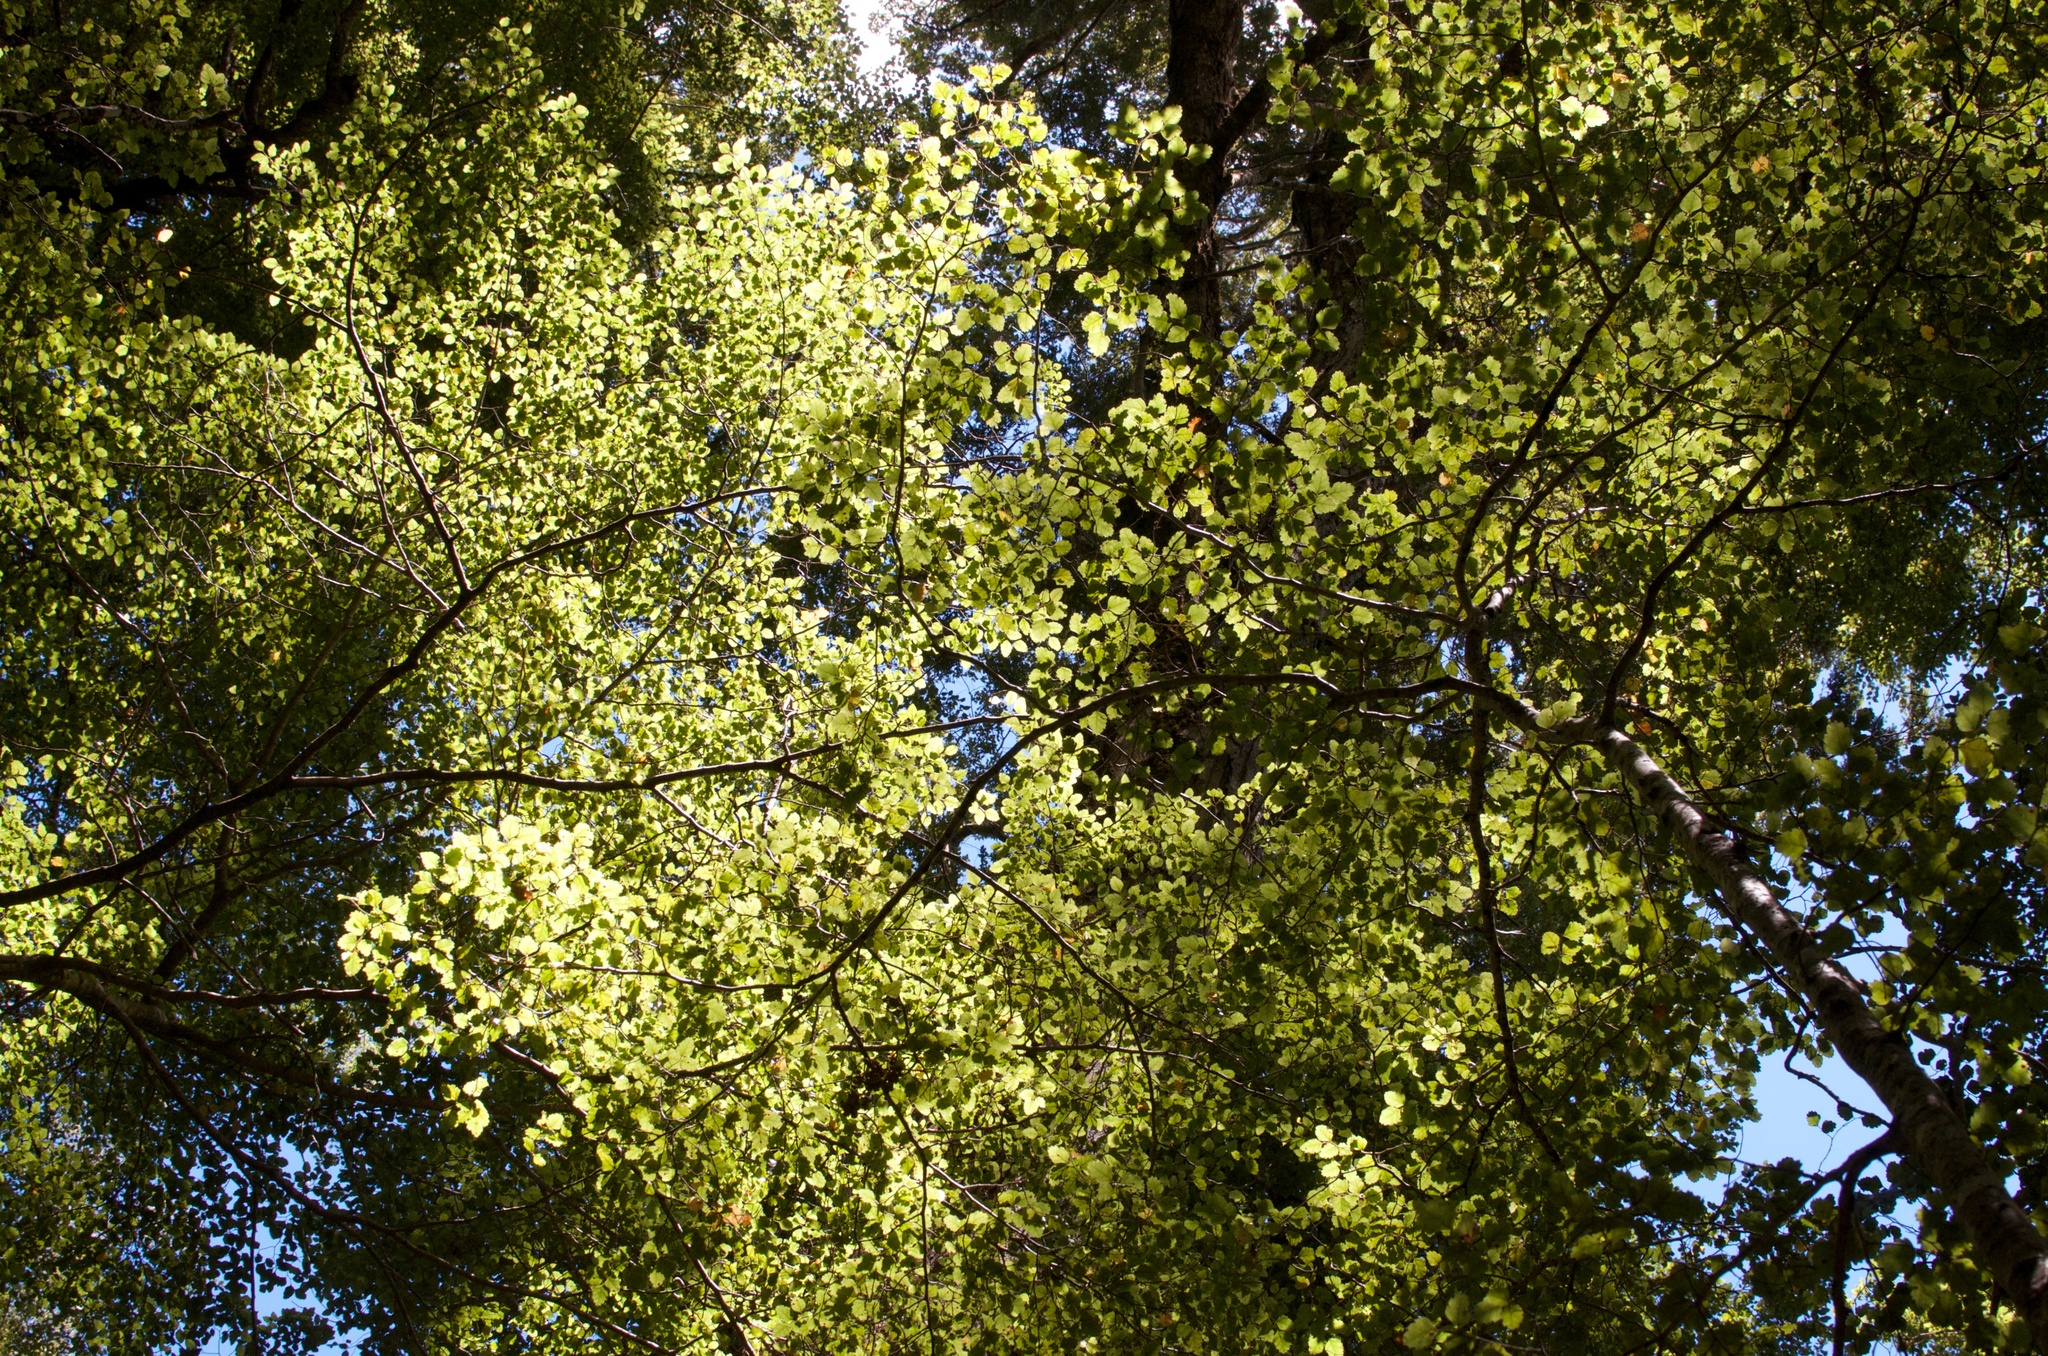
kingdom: Plantae
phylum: Tracheophyta
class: Magnoliopsida
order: Fagales
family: Nothofagaceae
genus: Nothofagus
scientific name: Nothofagus fusca
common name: Red beech
